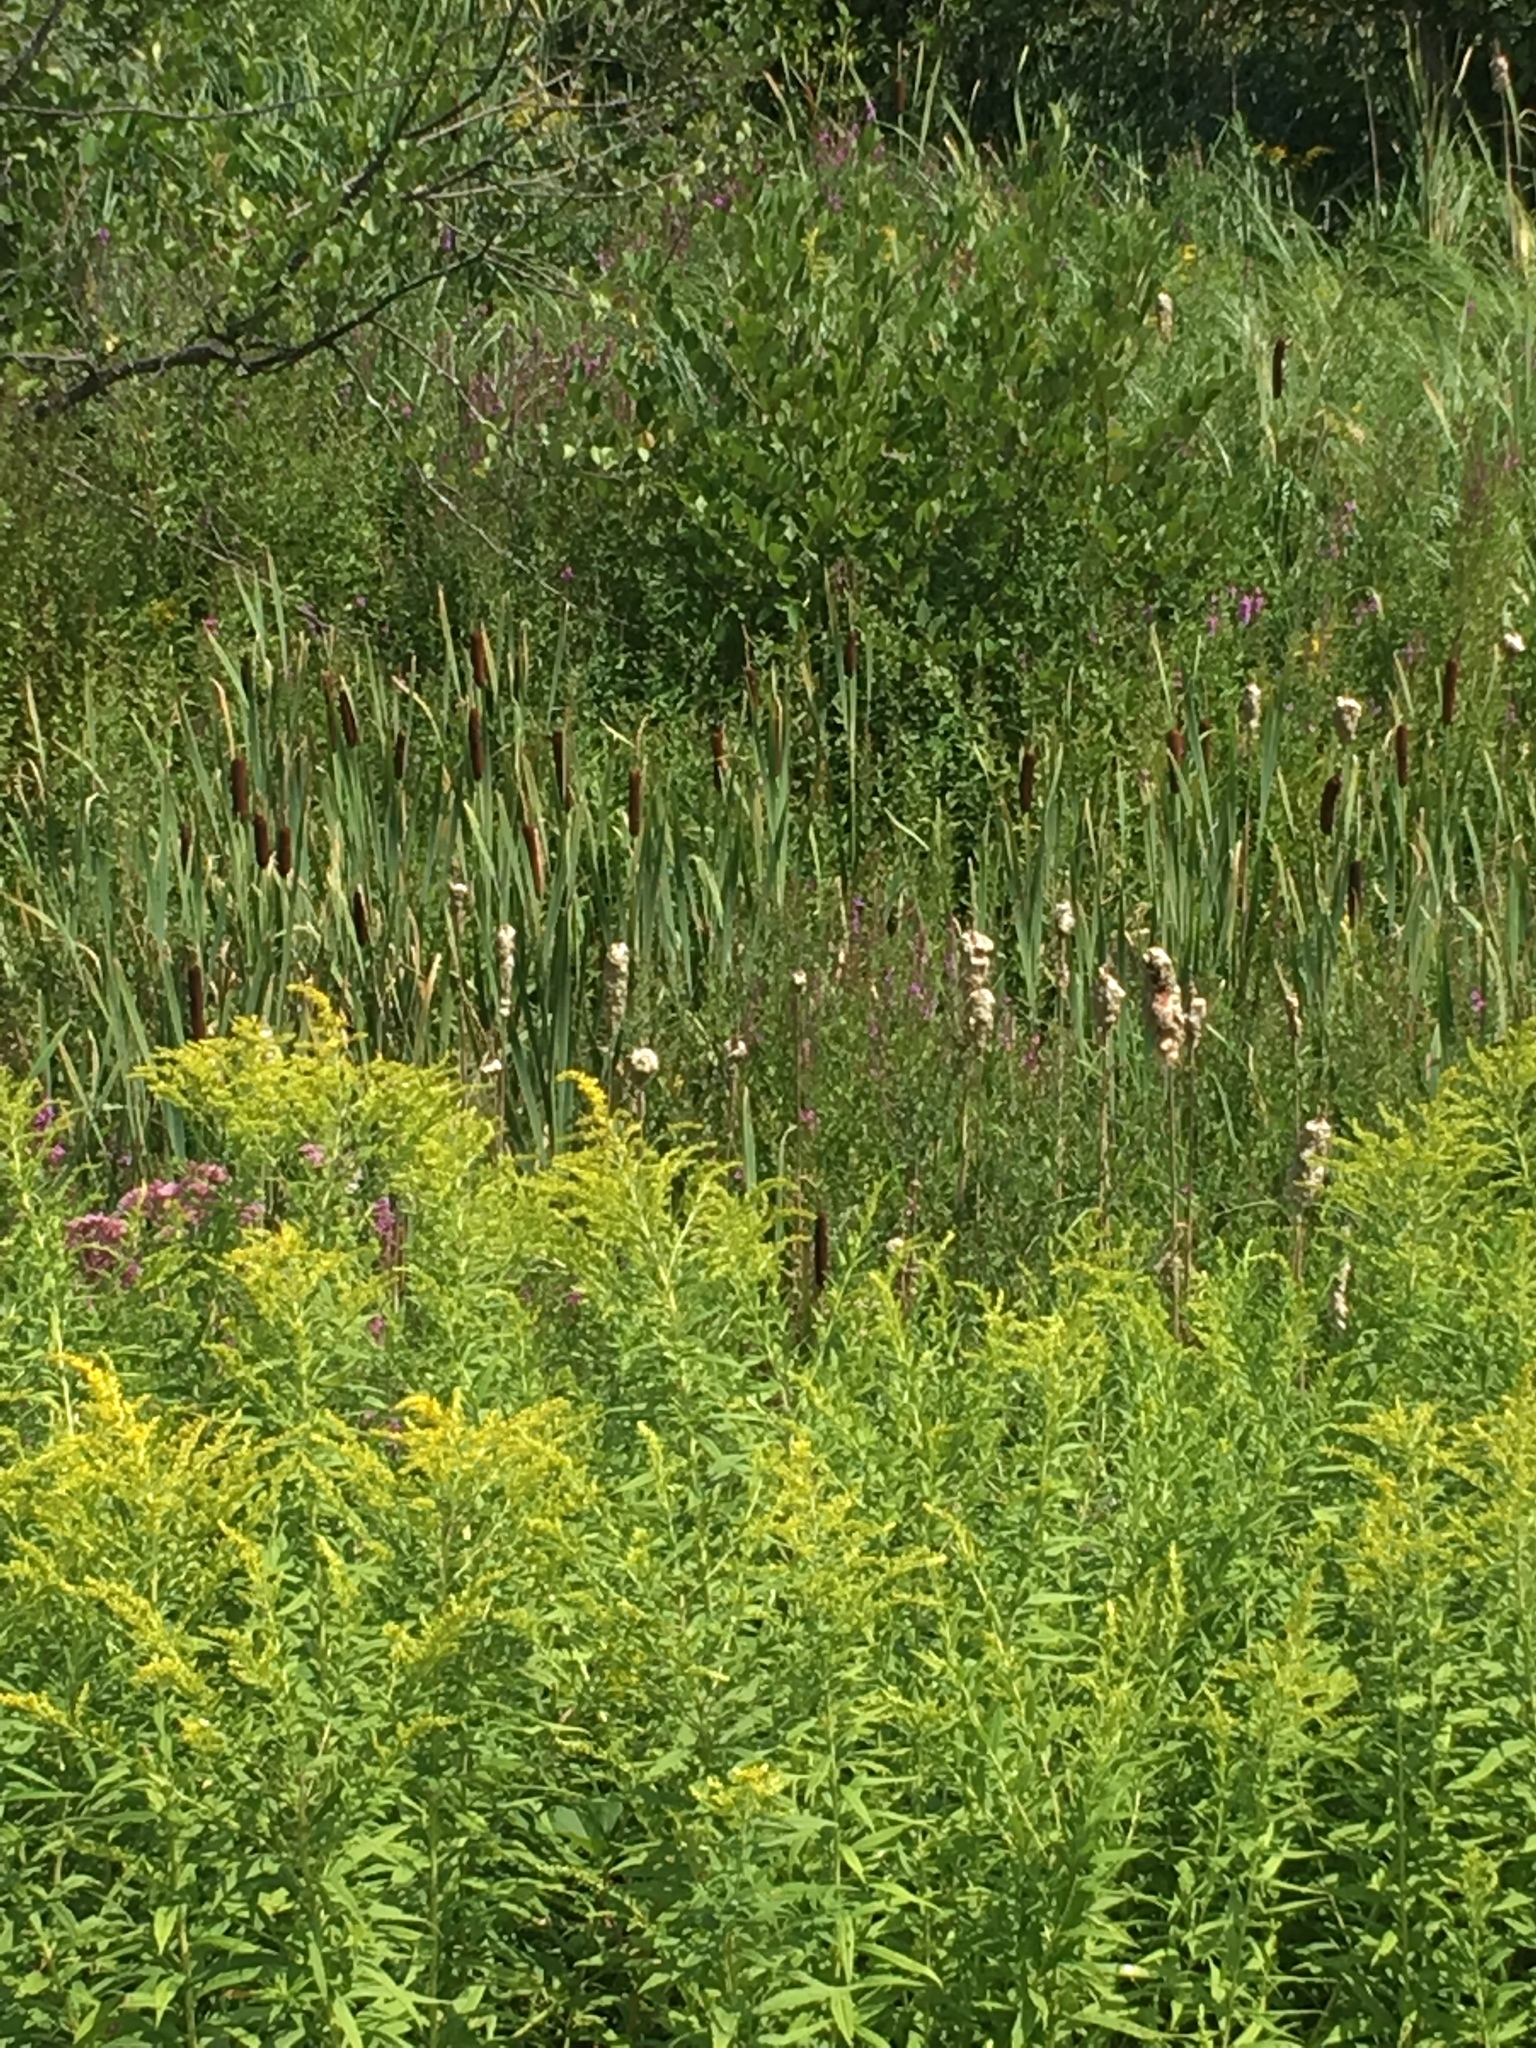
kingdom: Plantae
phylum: Tracheophyta
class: Liliopsida
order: Poales
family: Typhaceae
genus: Typha
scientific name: Typha latifolia
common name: Broadleaf cattail
